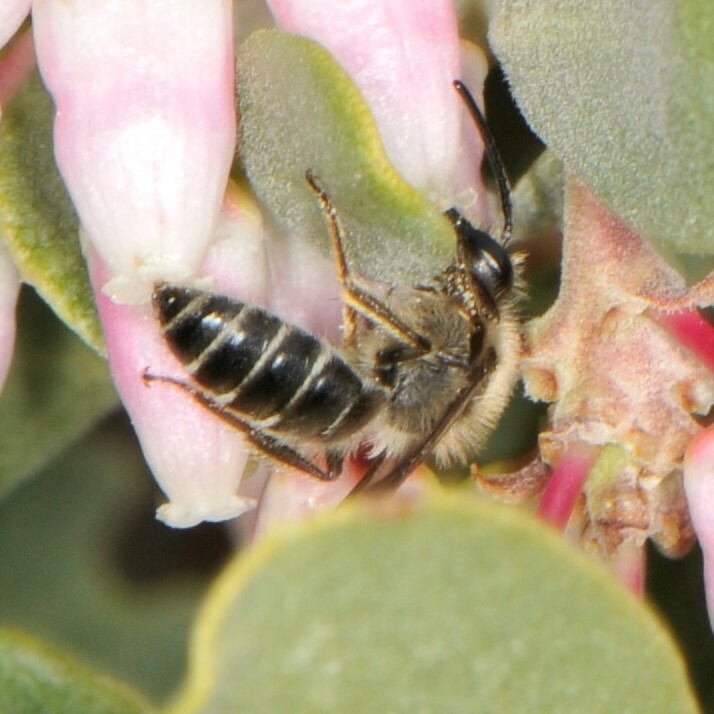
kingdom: Animalia
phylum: Arthropoda
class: Insecta
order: Hymenoptera
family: Andrenidae
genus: Andrena
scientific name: Andrena
